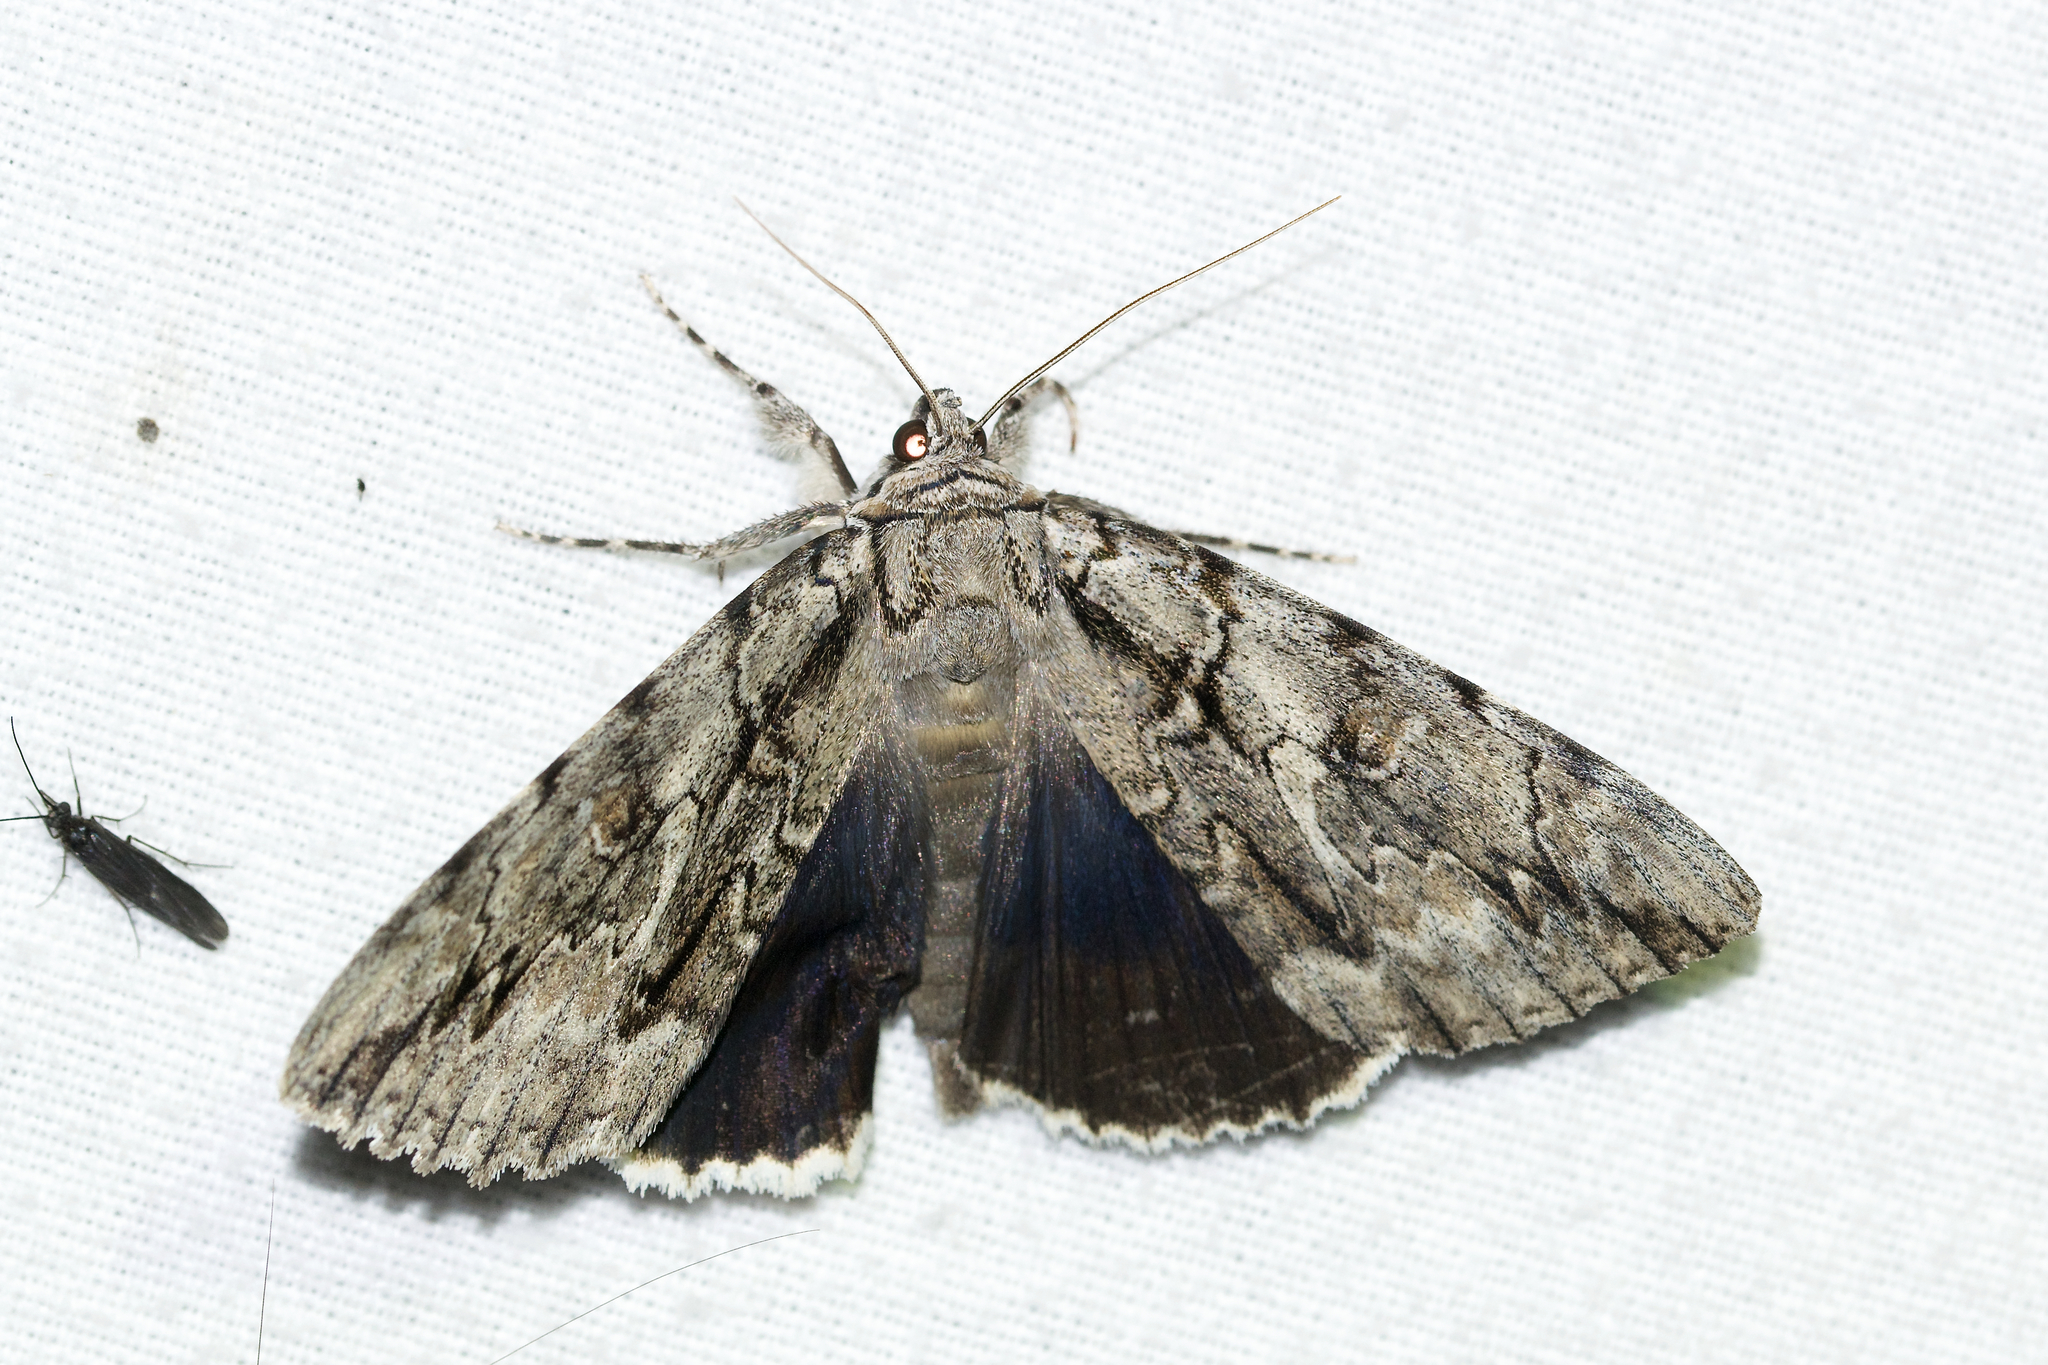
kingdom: Animalia
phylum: Arthropoda
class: Insecta
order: Lepidoptera
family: Erebidae
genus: Catocala
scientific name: Catocala retecta
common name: Yellow-gray underwing
